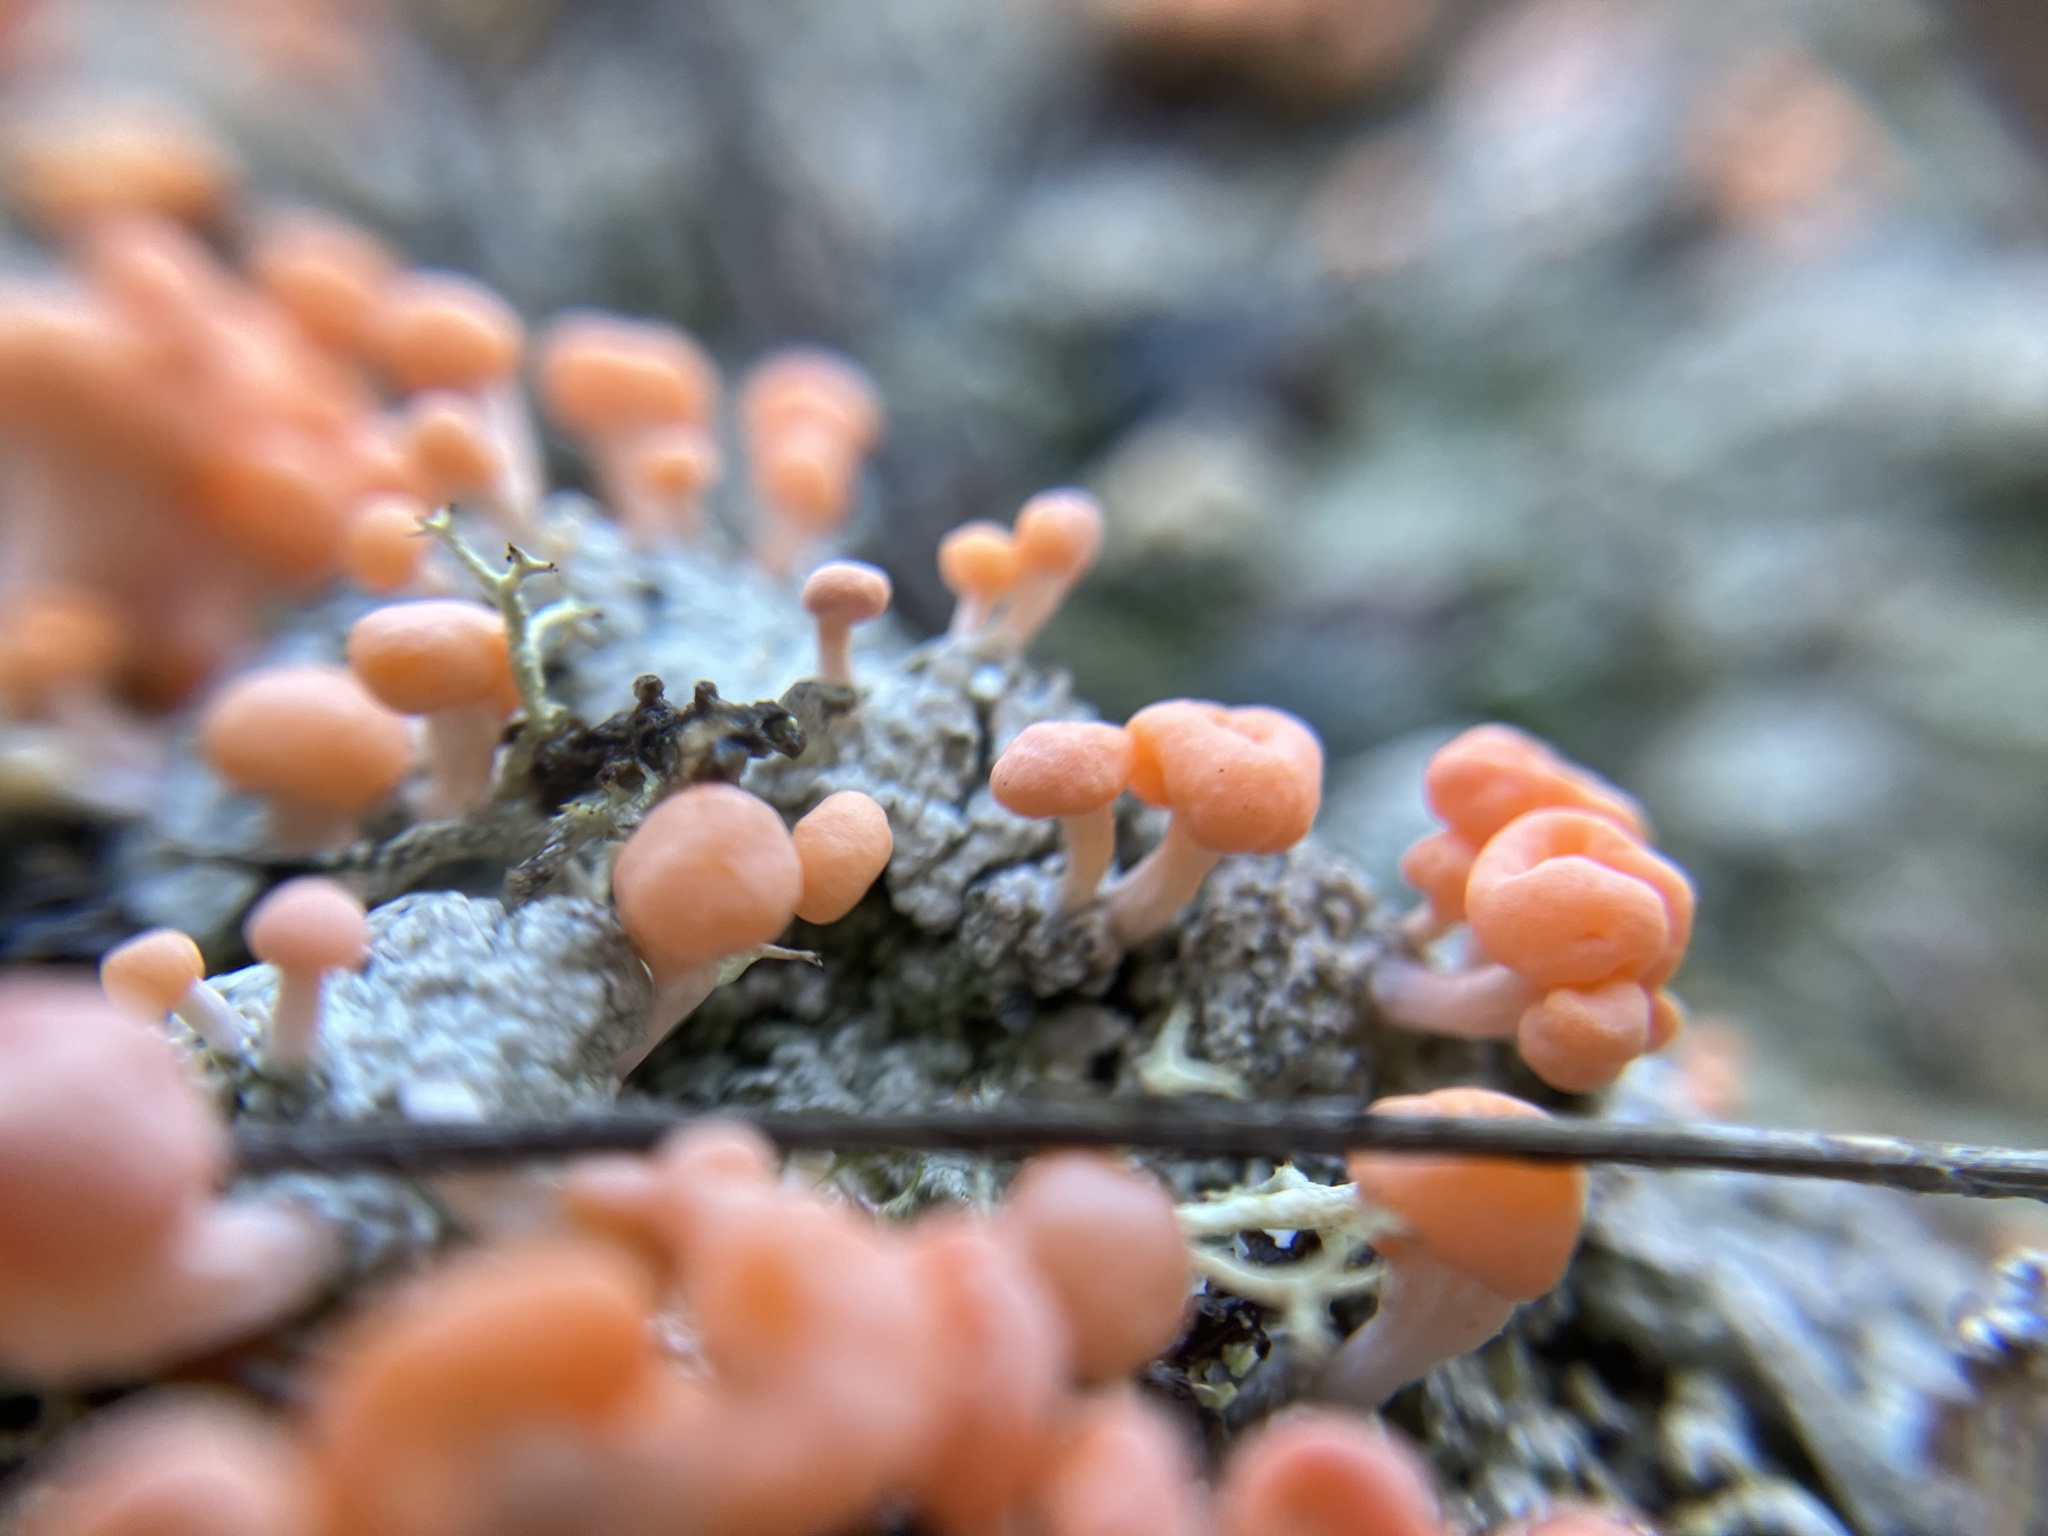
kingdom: Fungi
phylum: Ascomycota
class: Lecanoromycetes
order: Pertusariales
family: Icmadophilaceae
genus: Dibaeis
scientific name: Dibaeis baeomyces
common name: Pink earth lichen
